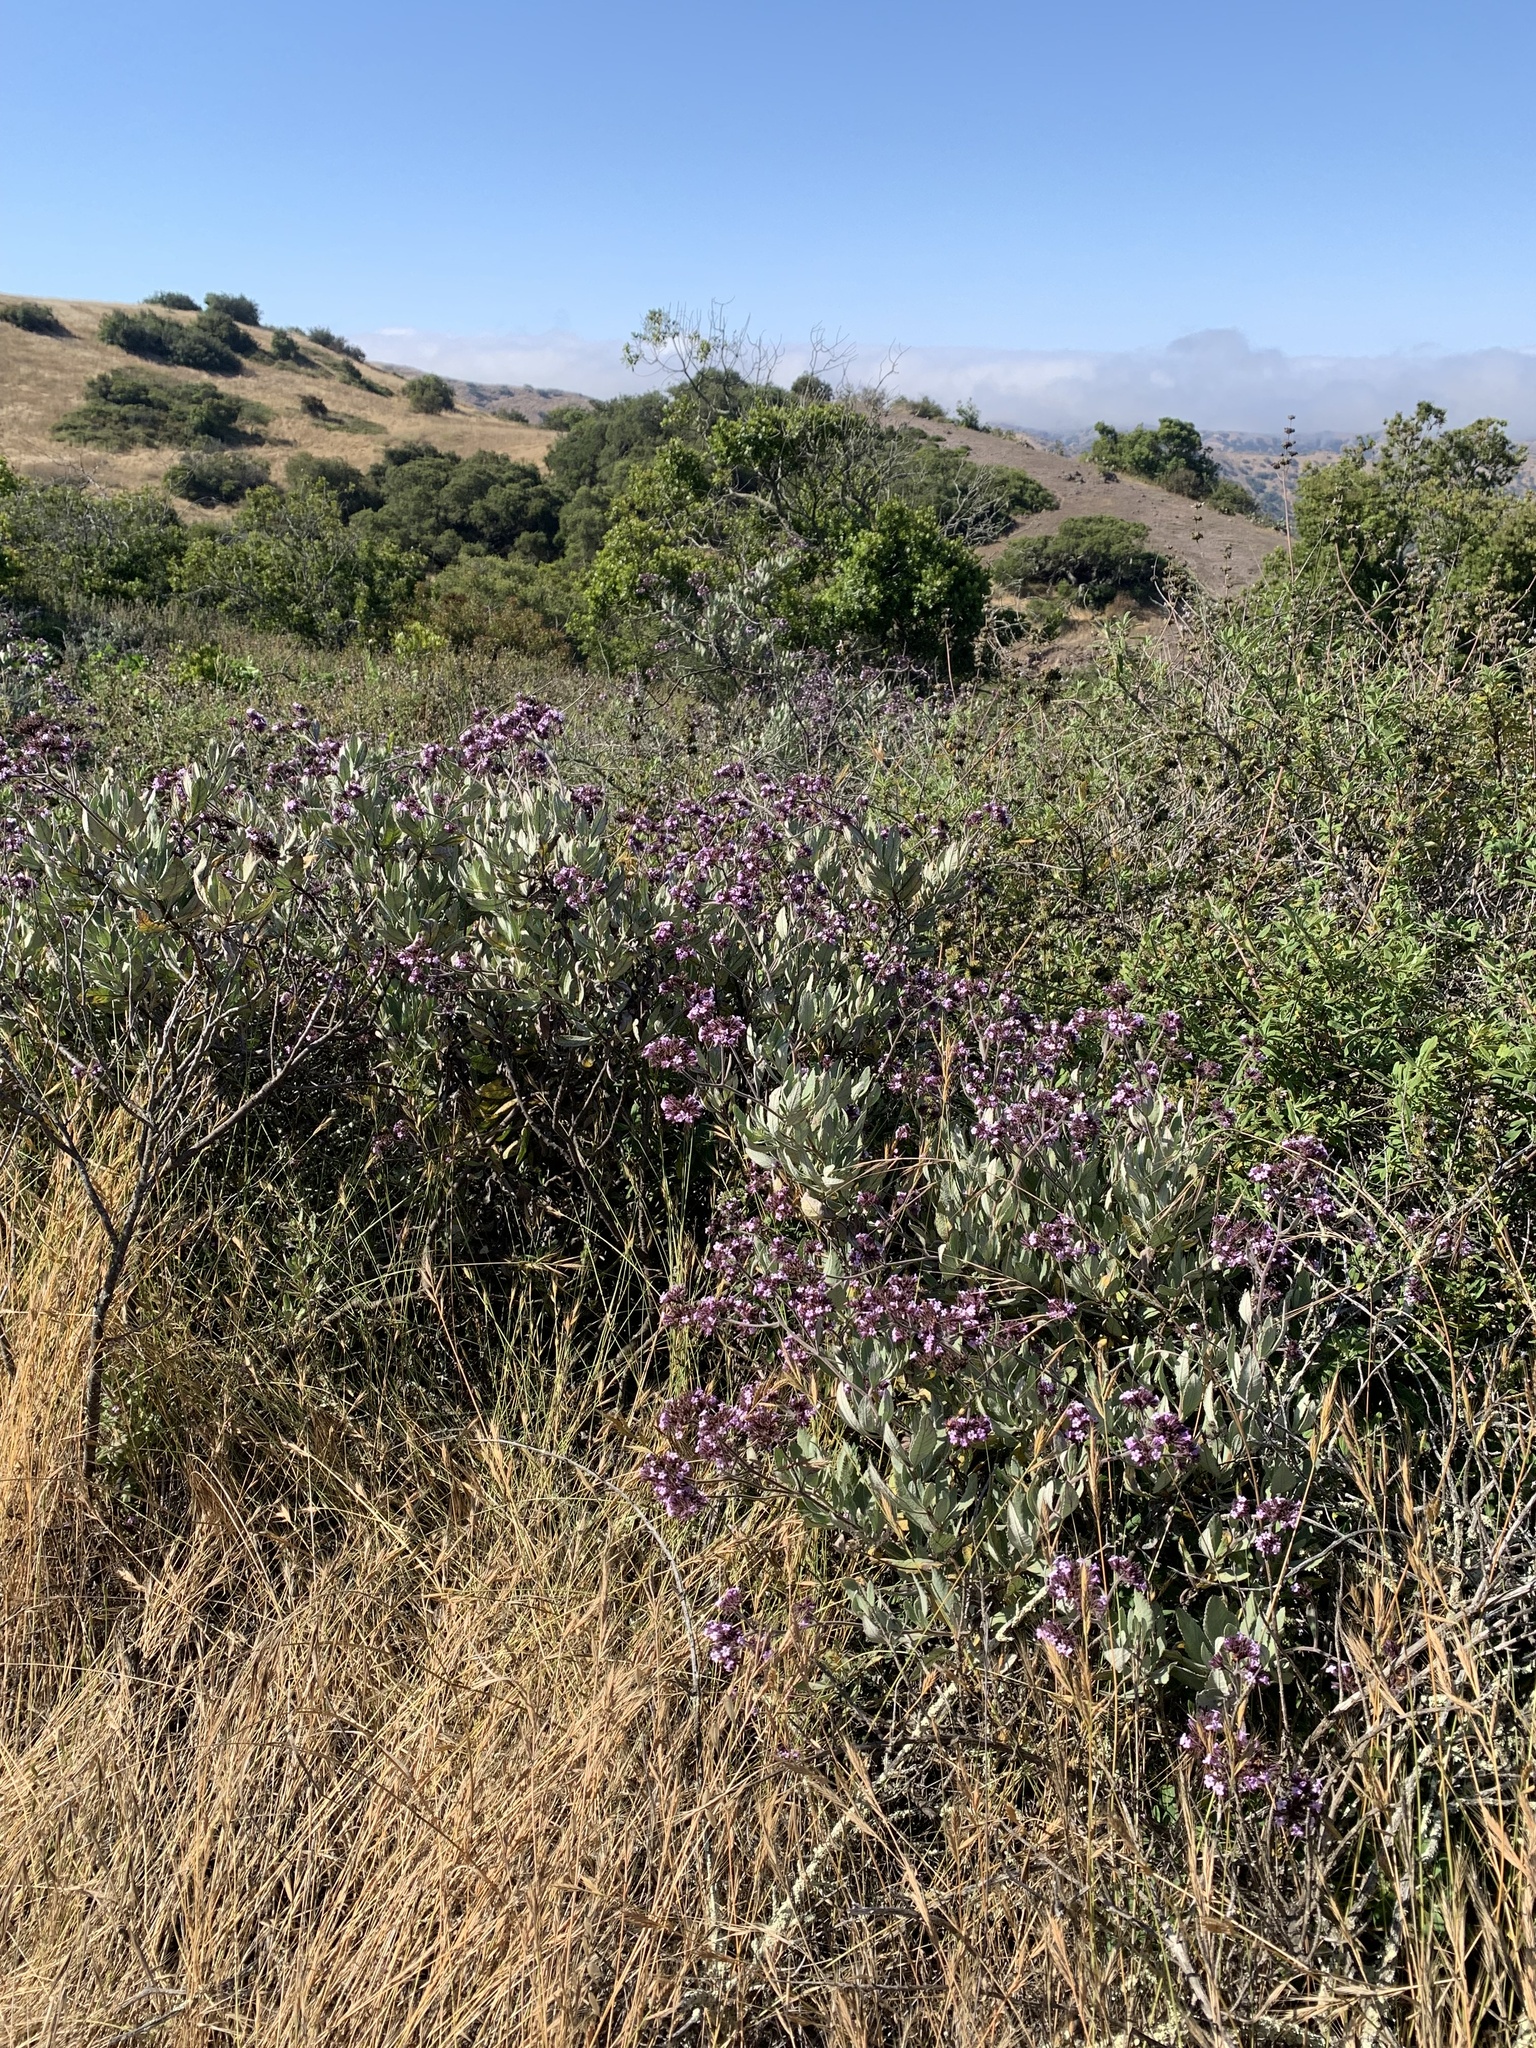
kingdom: Plantae
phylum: Tracheophyta
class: Magnoliopsida
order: Boraginales
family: Namaceae
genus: Eriodictyon
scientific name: Eriodictyon traskiae
